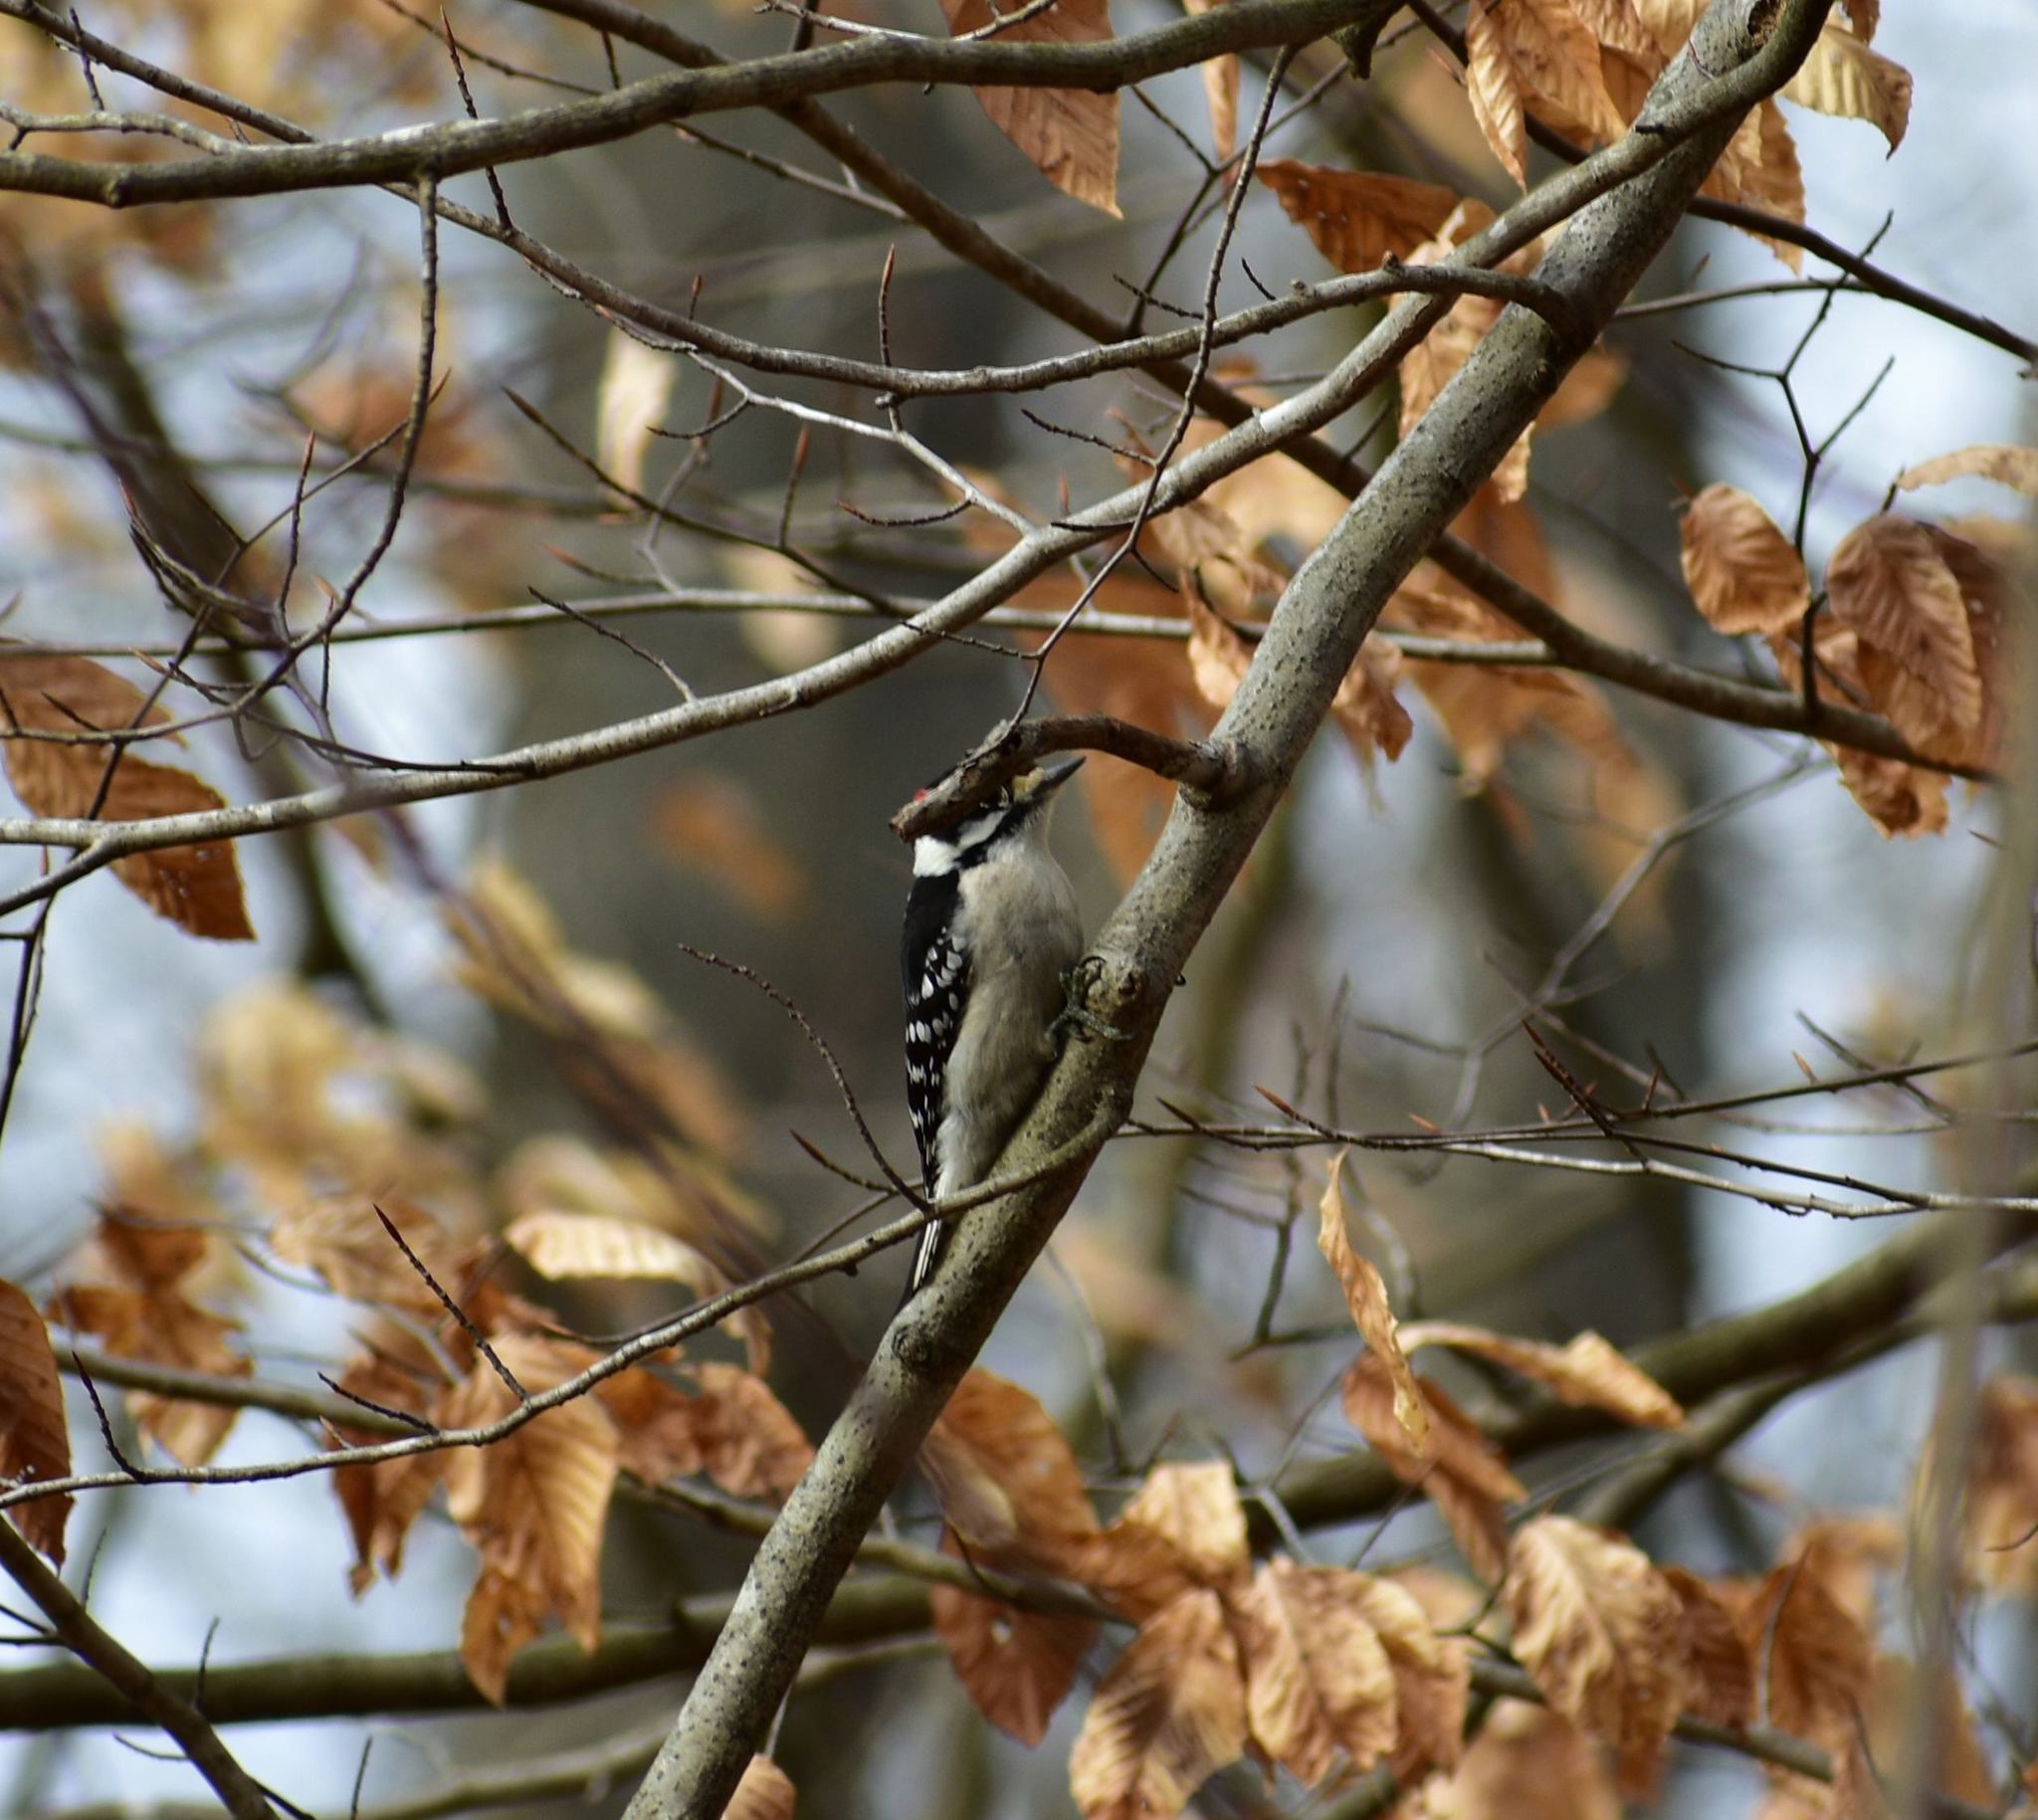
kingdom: Animalia
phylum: Chordata
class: Aves
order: Piciformes
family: Picidae
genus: Dryobates
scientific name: Dryobates pubescens
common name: Downy woodpecker
